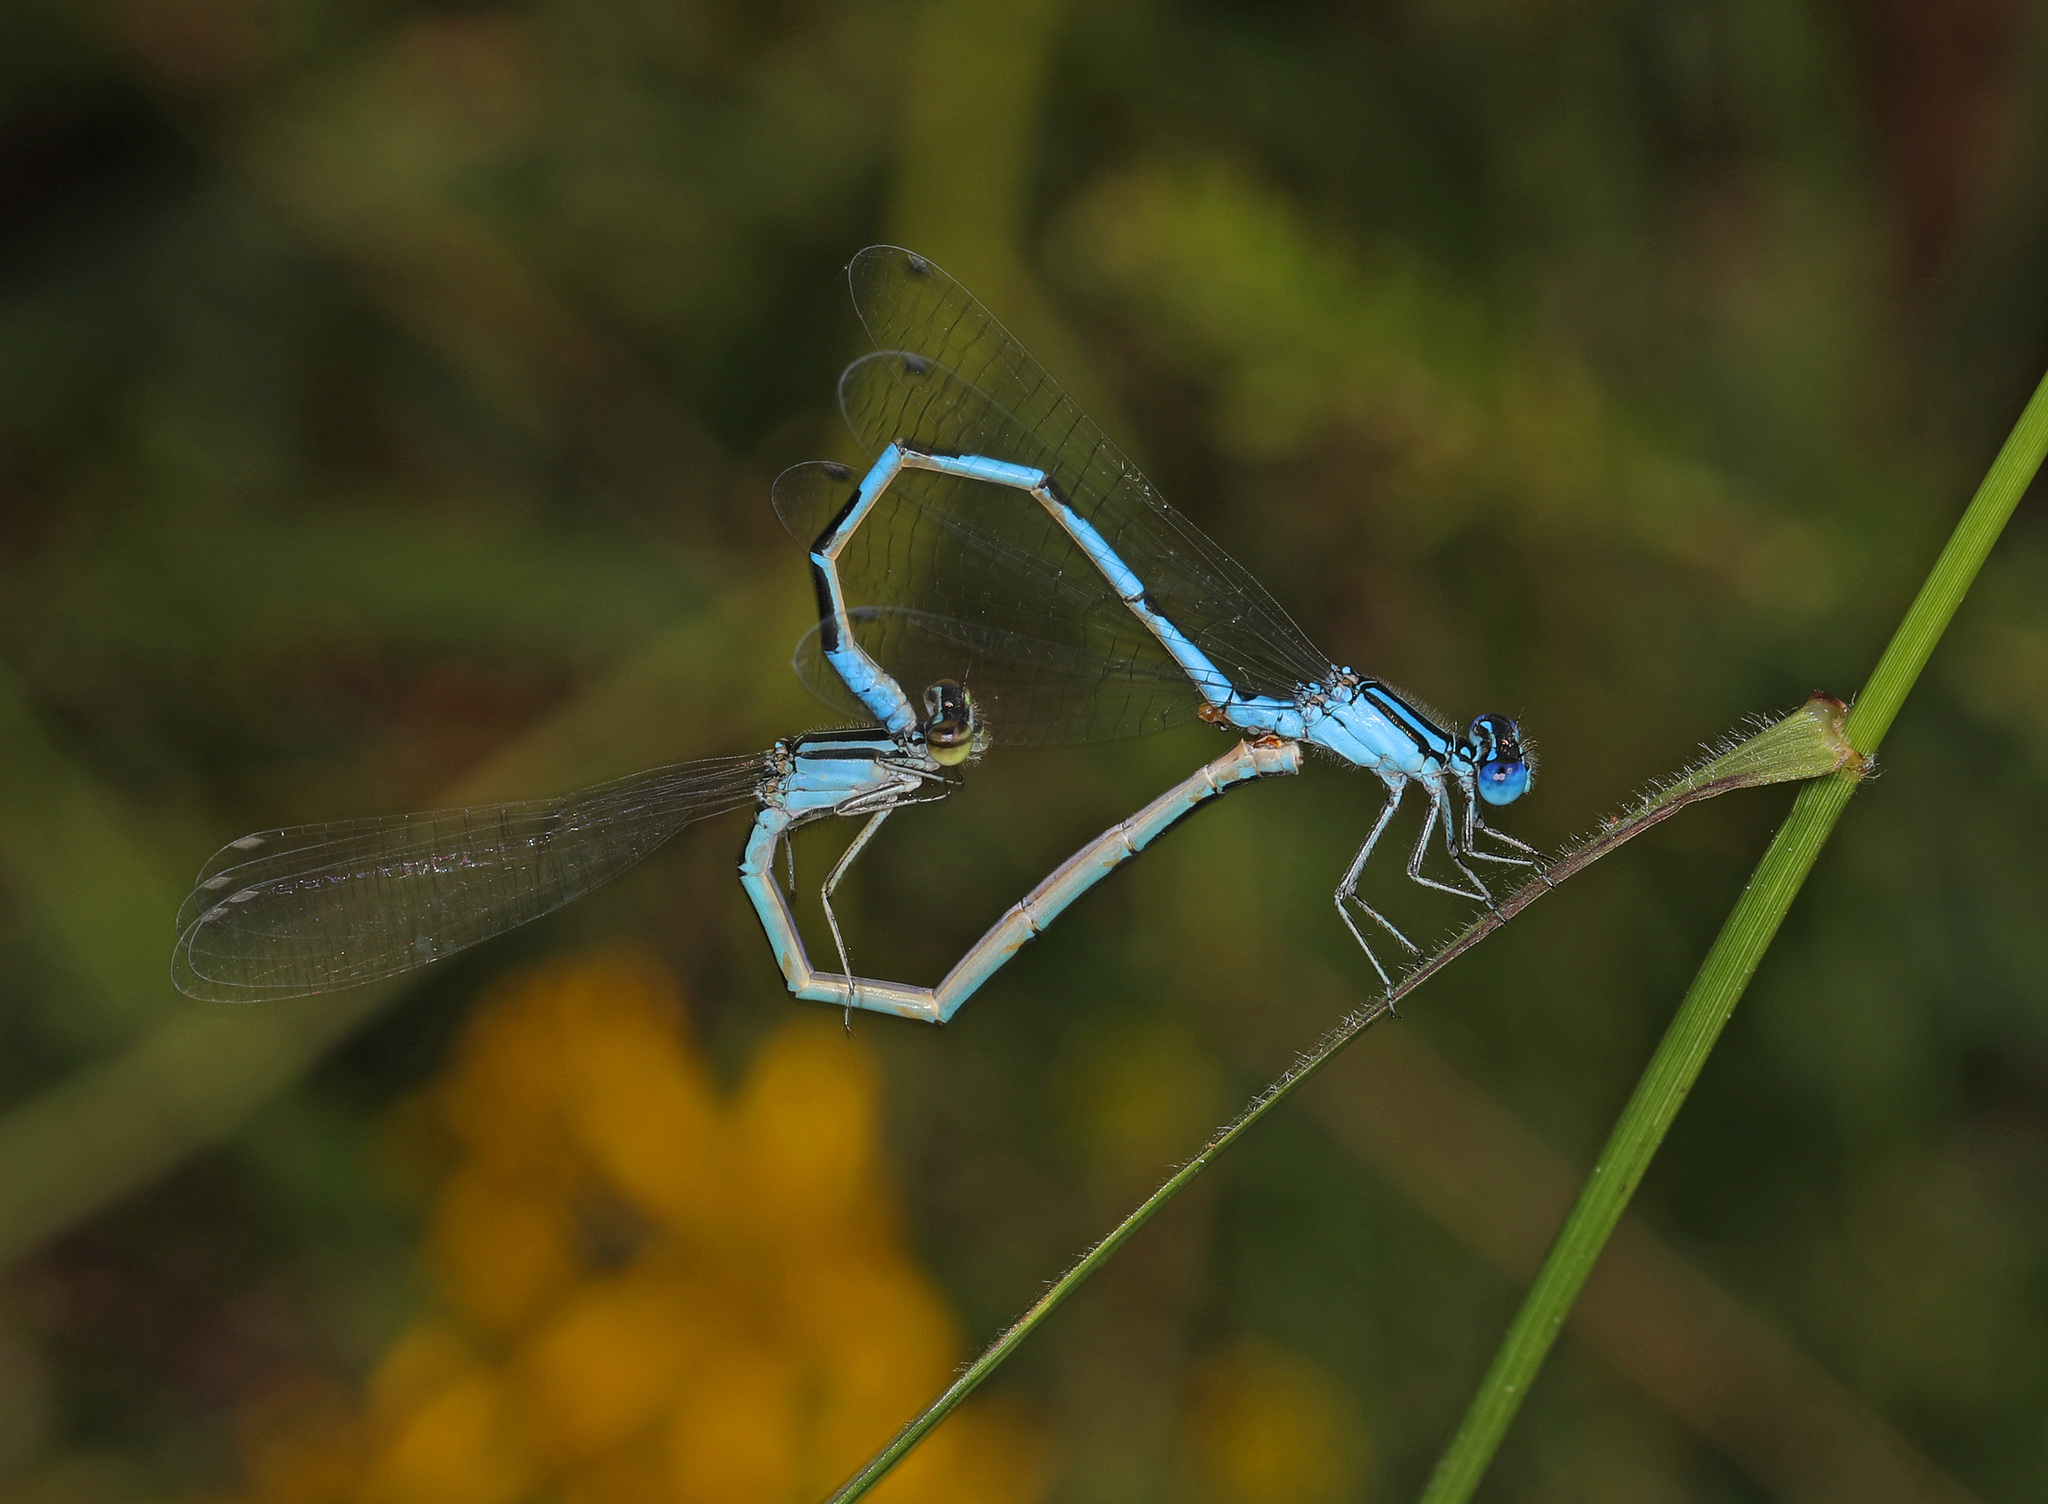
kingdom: Animalia
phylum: Arthropoda
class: Insecta
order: Odonata
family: Coenagrionidae
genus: Enallagma
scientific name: Enallagma civile
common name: Damselfly
